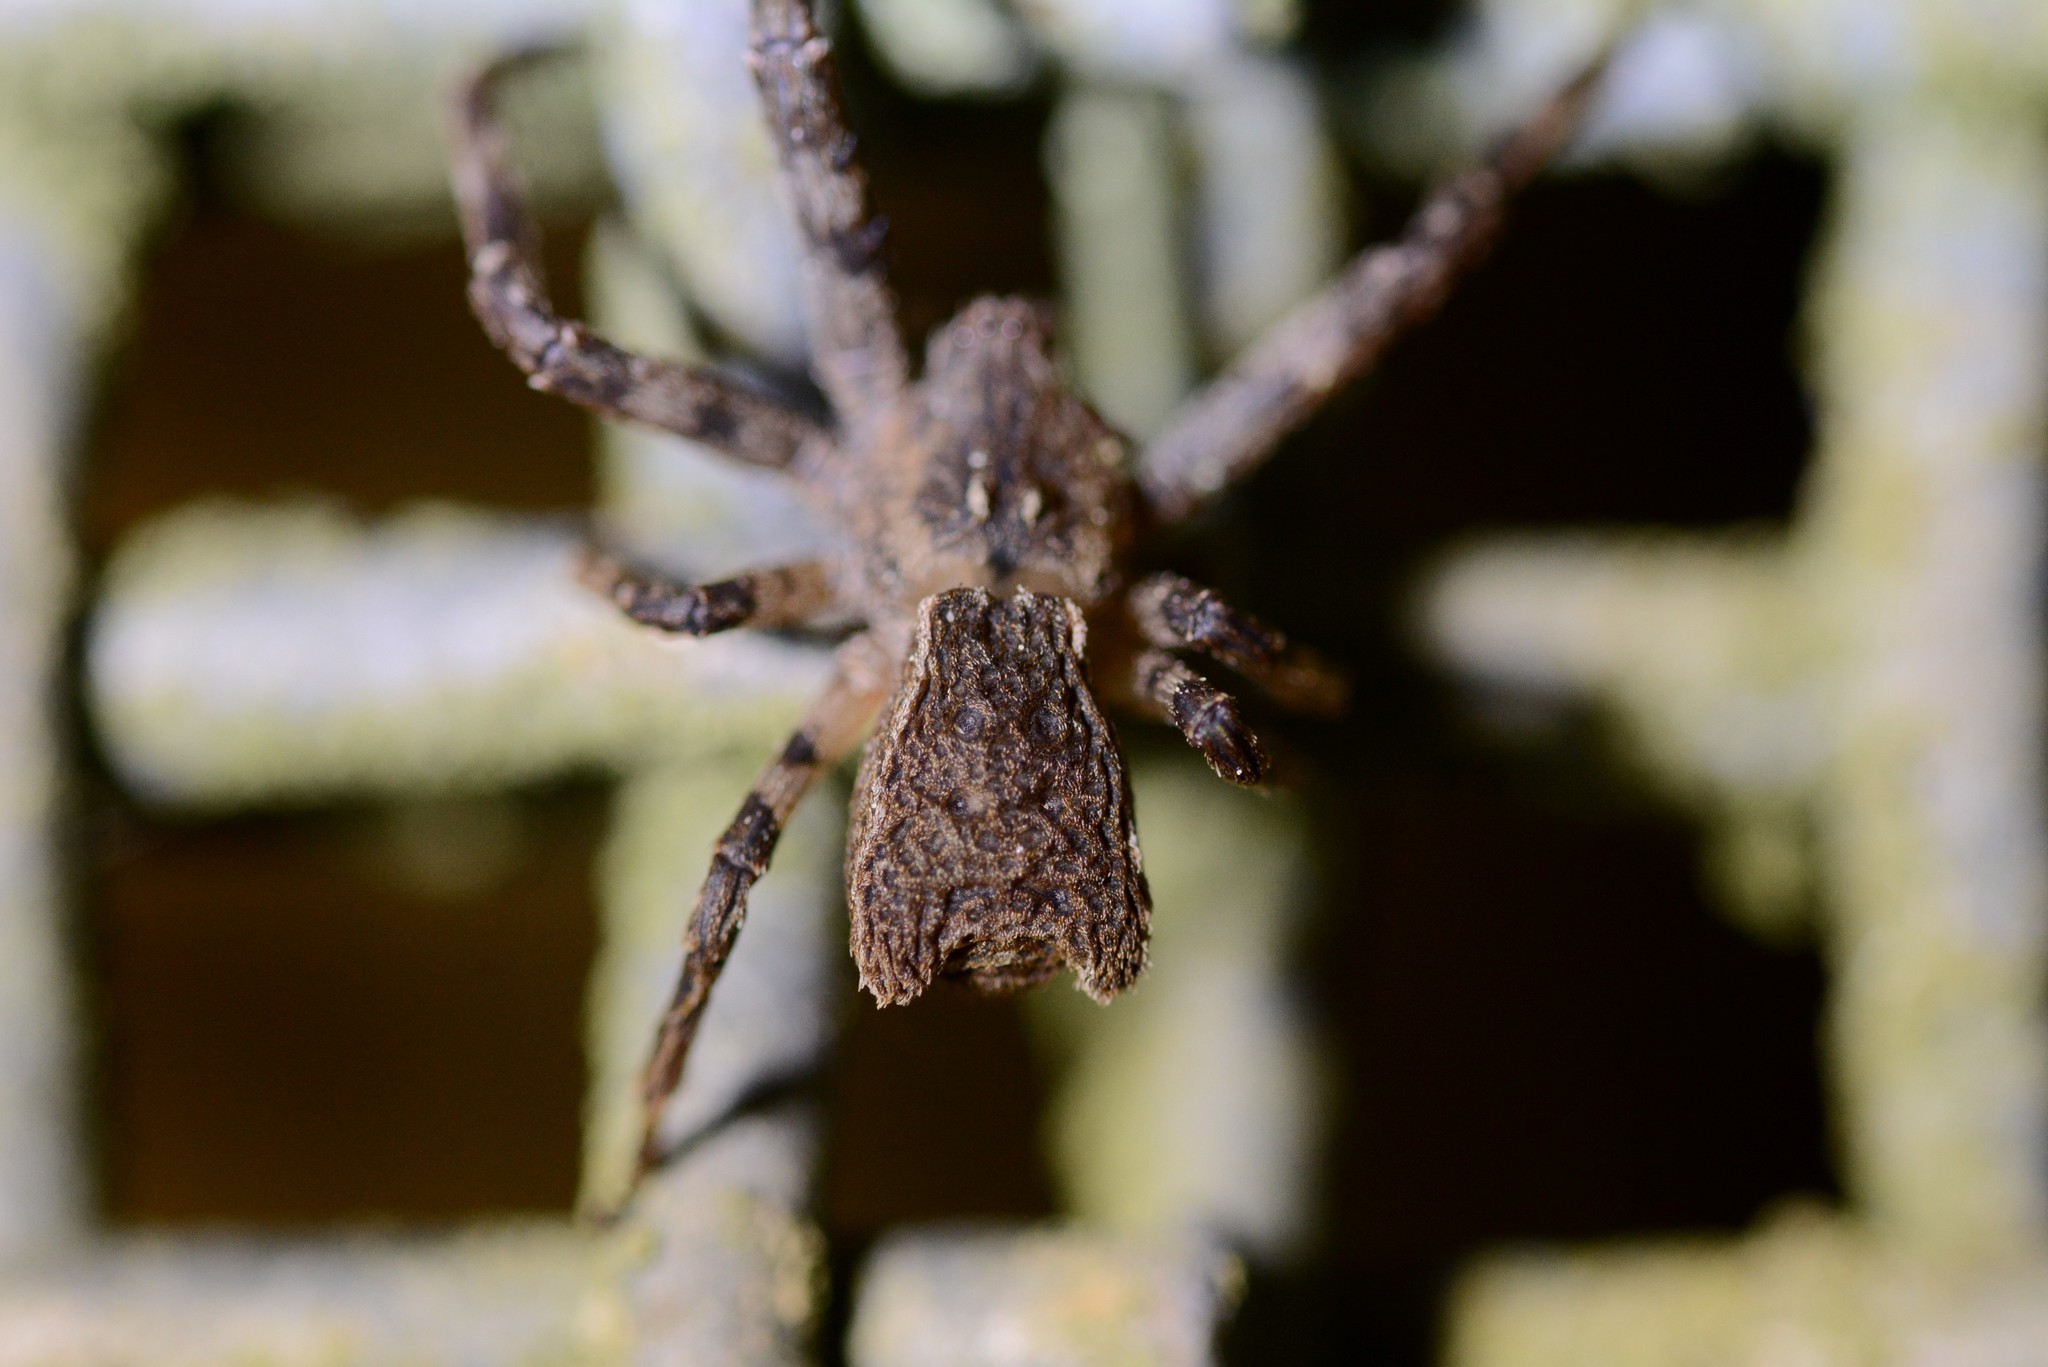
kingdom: Animalia
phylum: Arthropoda
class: Arachnida
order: Araneae
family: Thomisidae
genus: Sidymella
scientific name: Sidymella angularis
